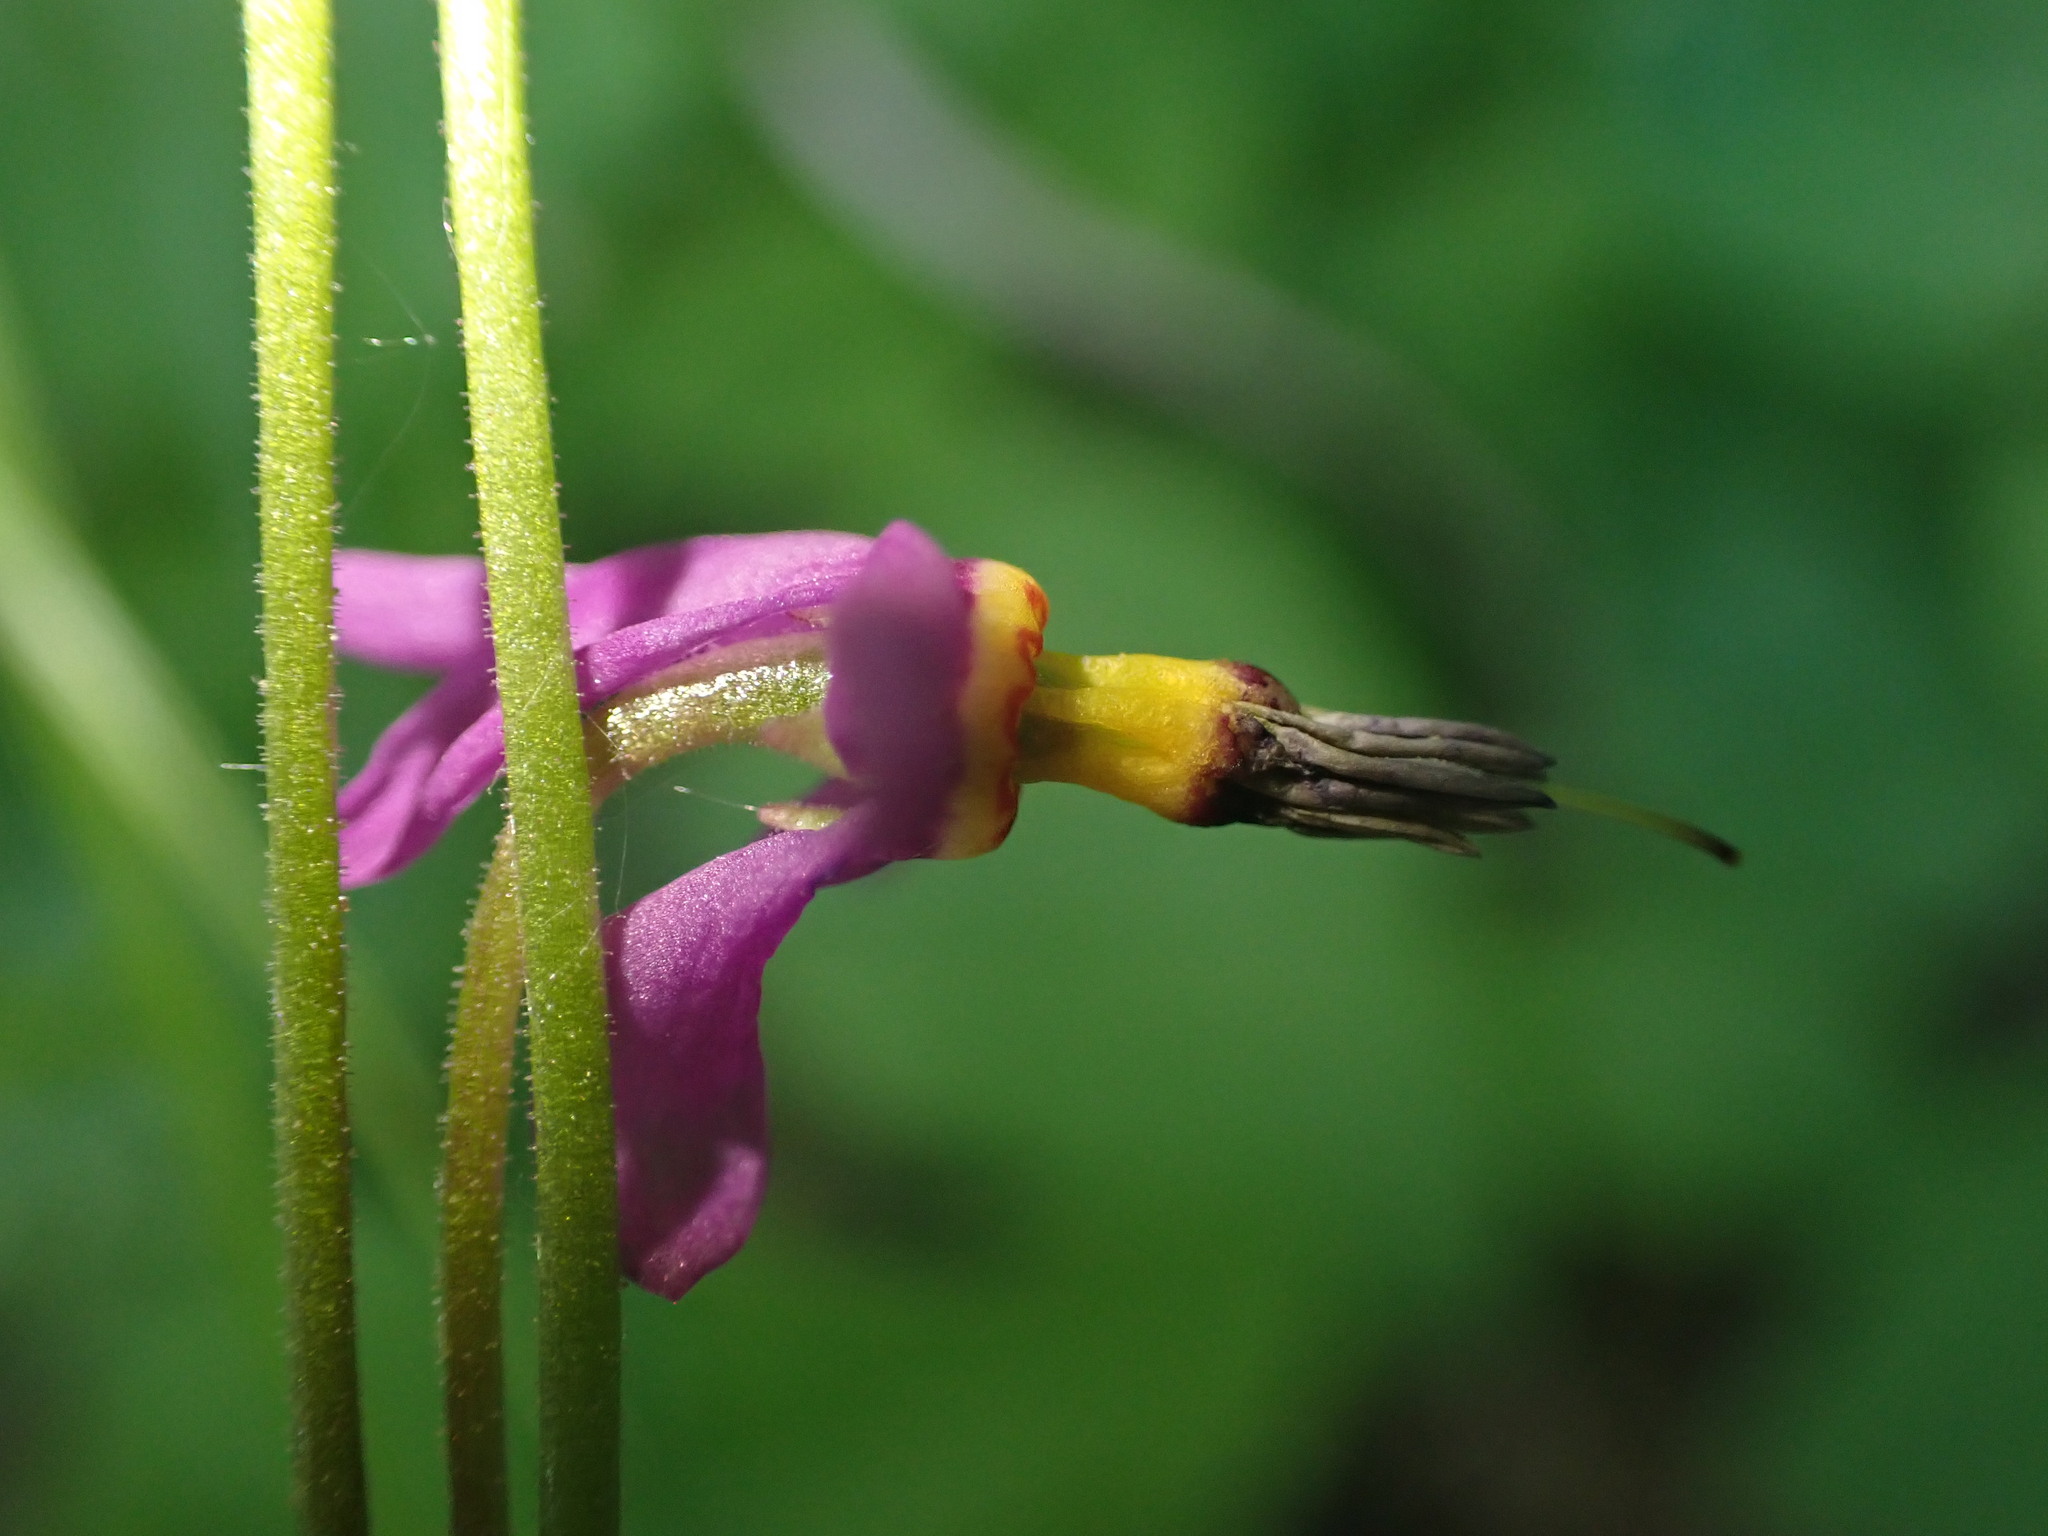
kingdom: Plantae
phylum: Tracheophyta
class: Magnoliopsida
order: Ericales
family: Primulaceae
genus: Dodecatheon
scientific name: Dodecatheon pulchellum
